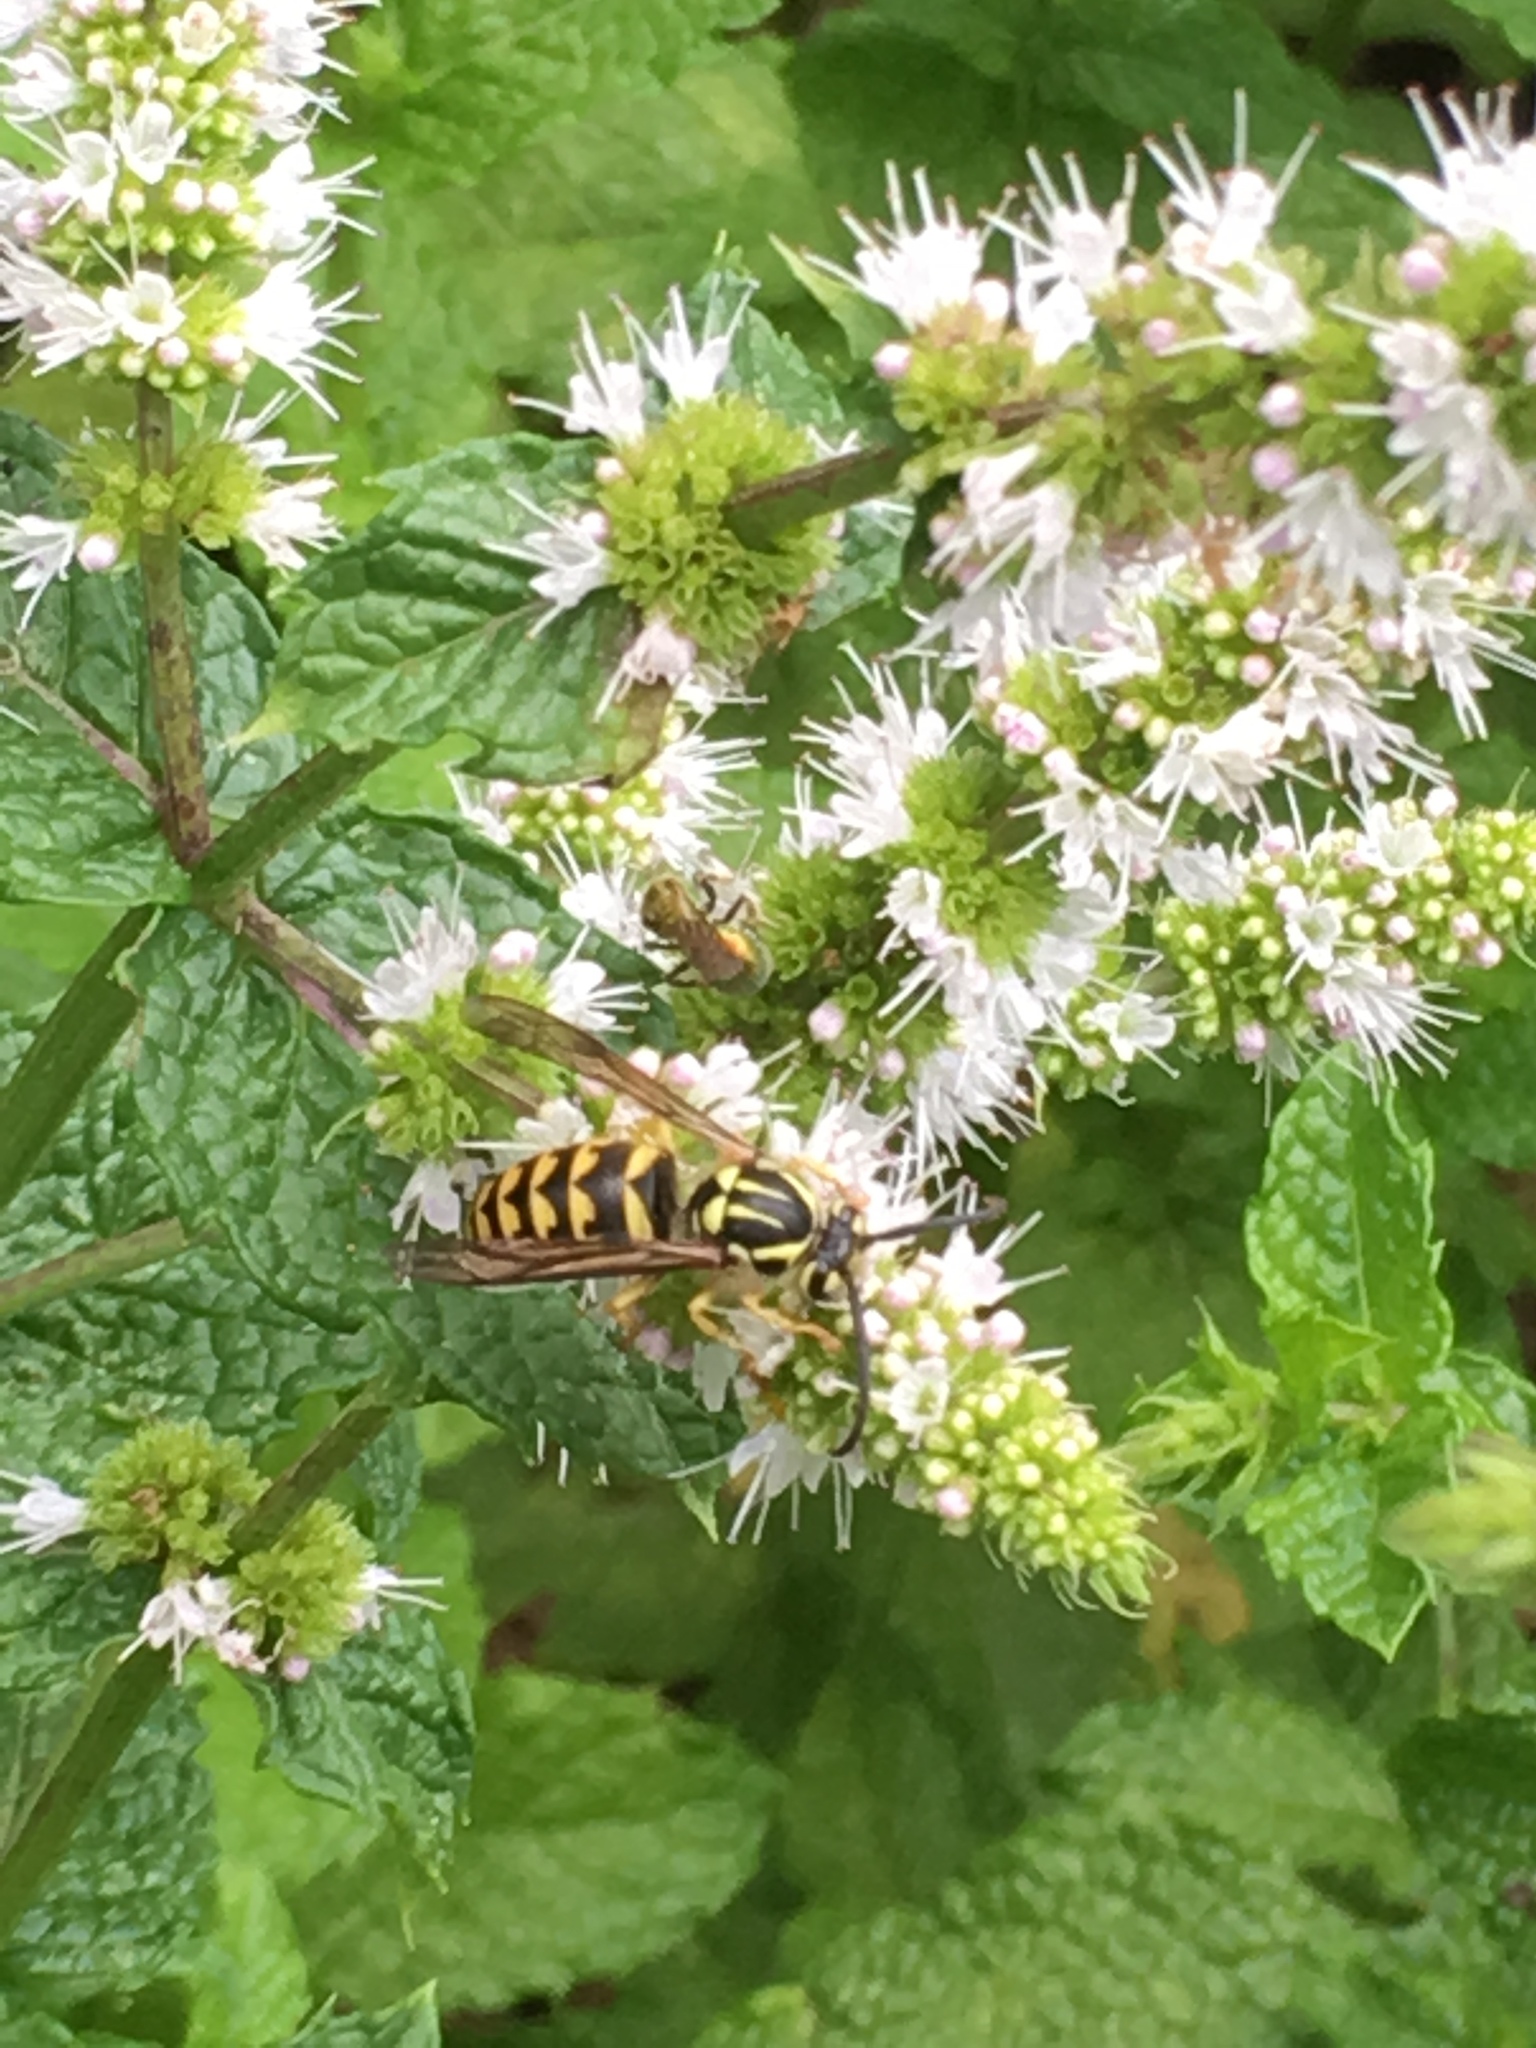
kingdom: Animalia
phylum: Arthropoda
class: Insecta
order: Hymenoptera
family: Vespidae
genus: Dolichovespula
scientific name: Dolichovespula arenaria
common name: Aerial yellowjacket
